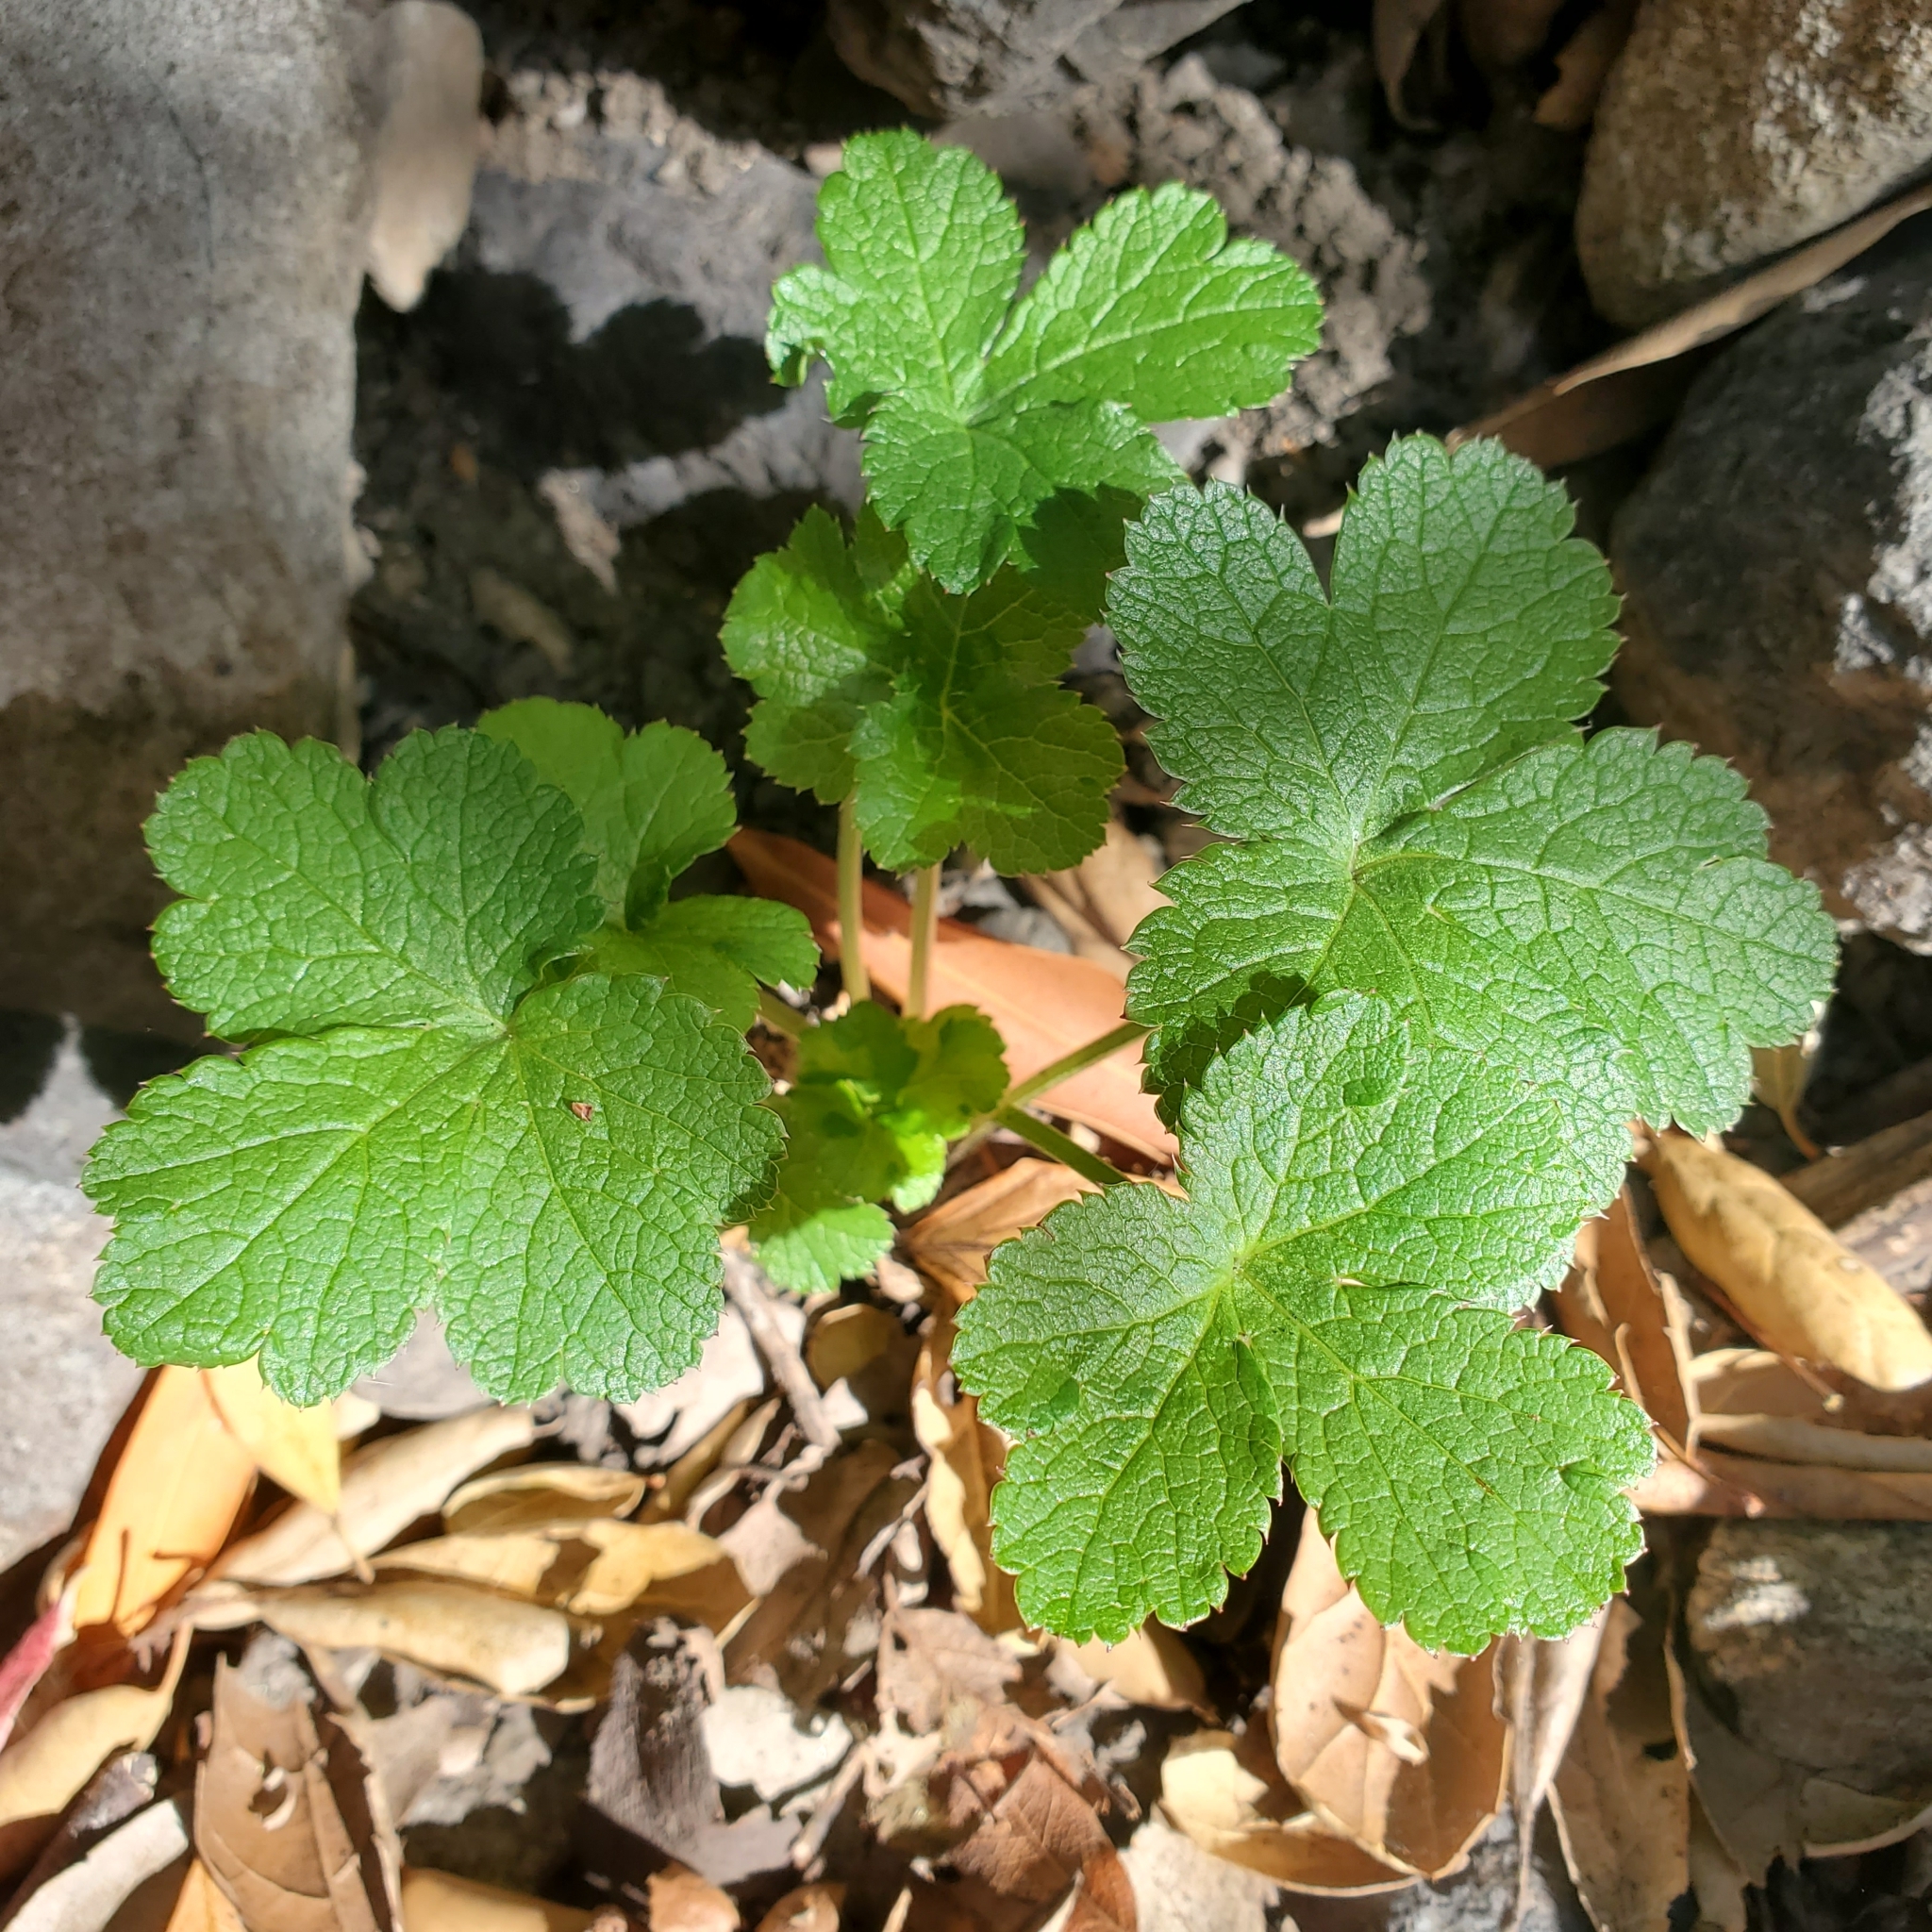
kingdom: Plantae
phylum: Tracheophyta
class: Magnoliopsida
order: Apiales
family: Apiaceae
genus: Sanicula
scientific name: Sanicula crassicaulis
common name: Western snakeroot
